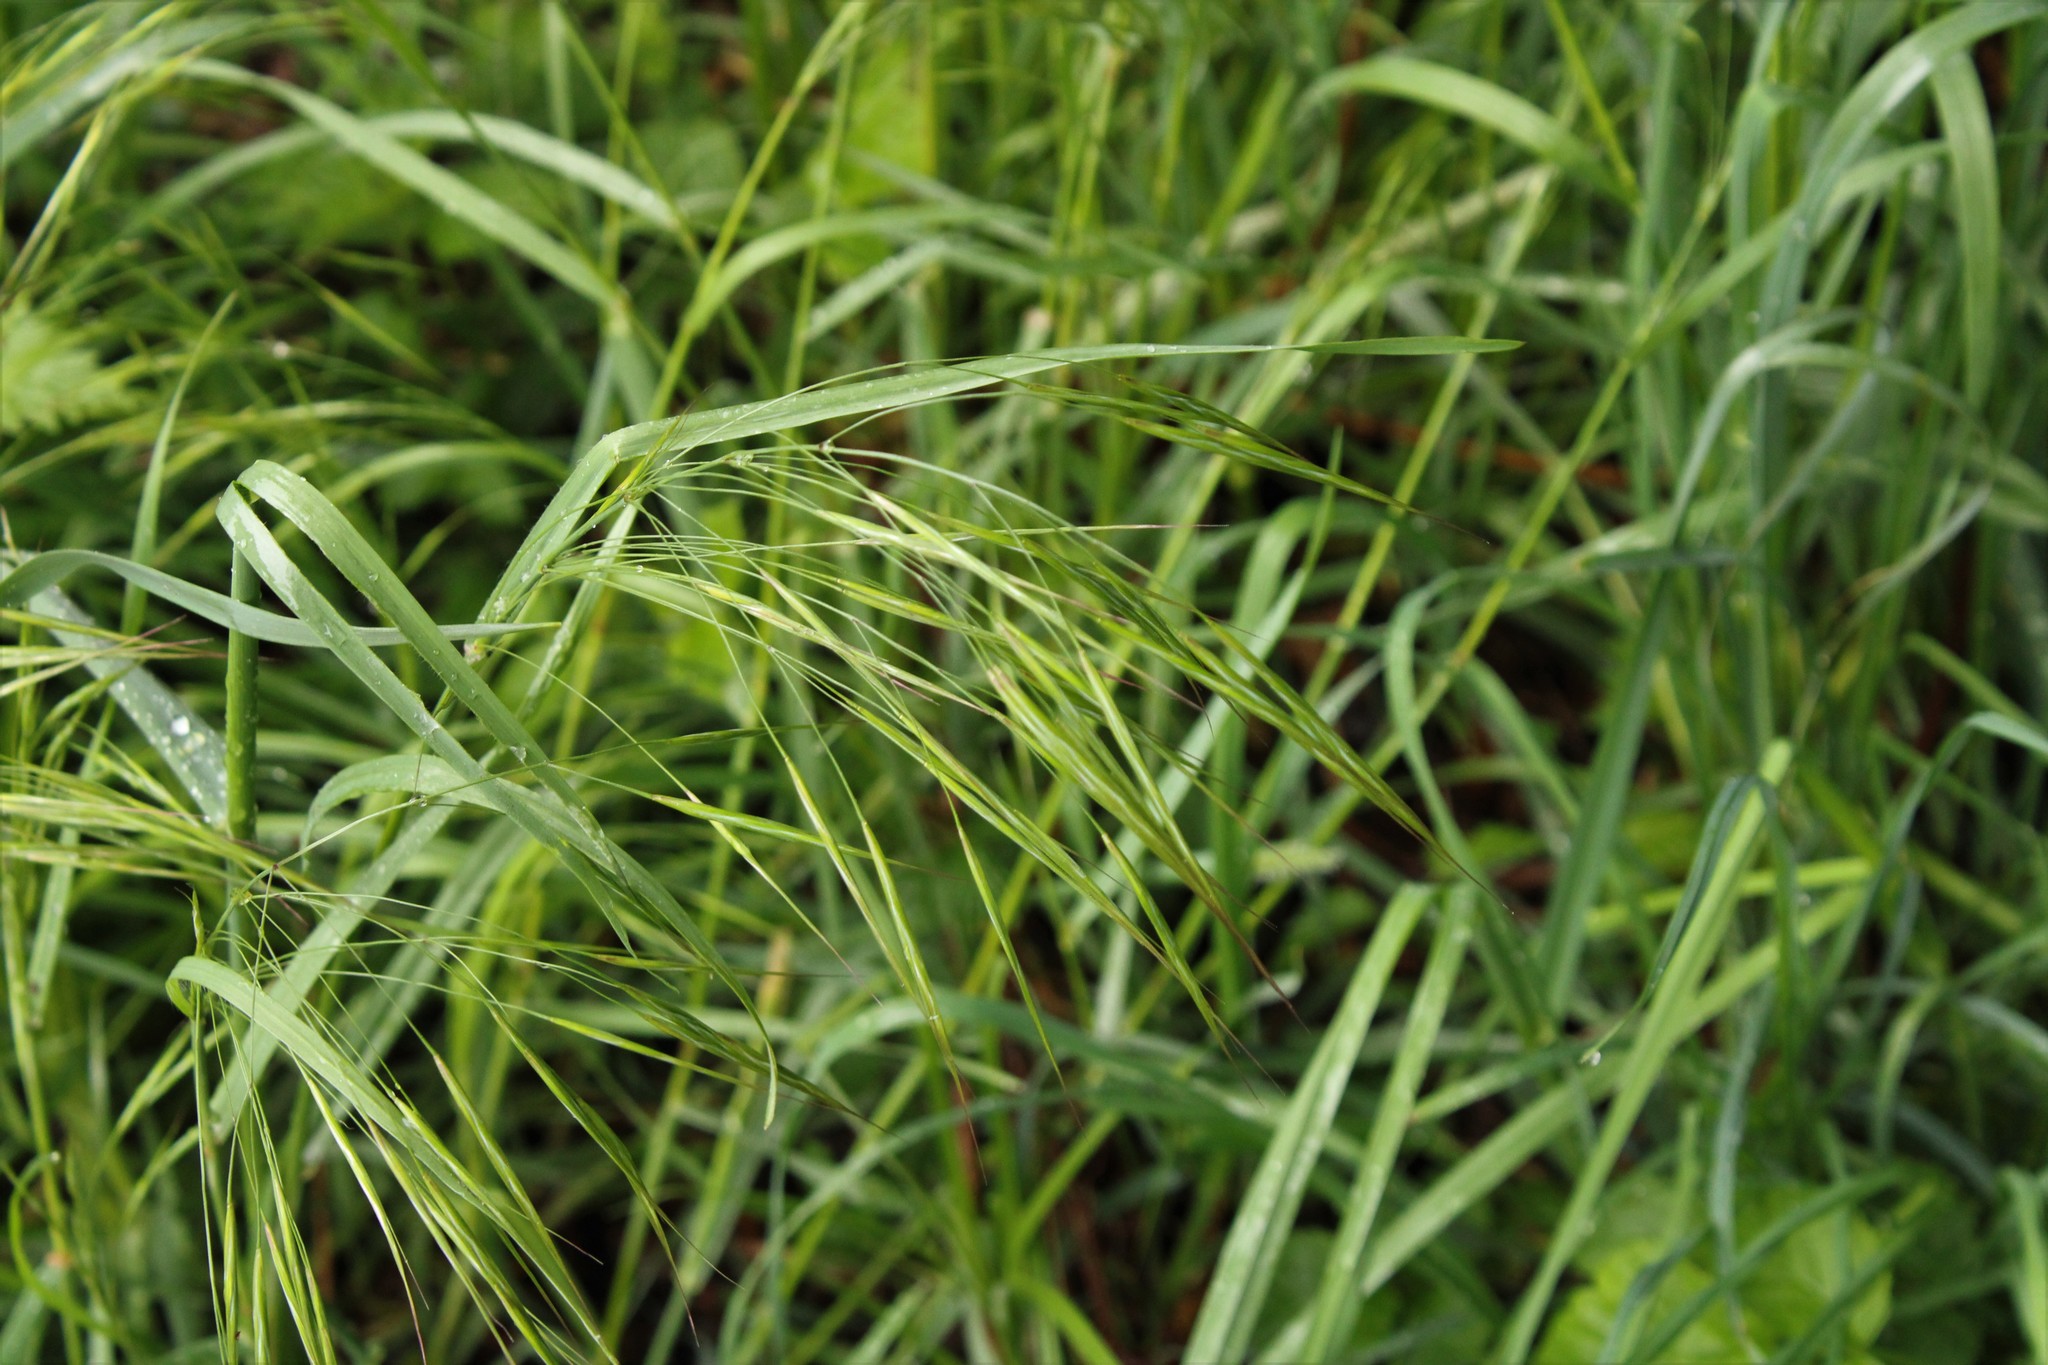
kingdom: Plantae
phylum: Tracheophyta
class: Liliopsida
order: Poales
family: Poaceae
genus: Bromus
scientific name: Bromus sterilis
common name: Poverty brome
